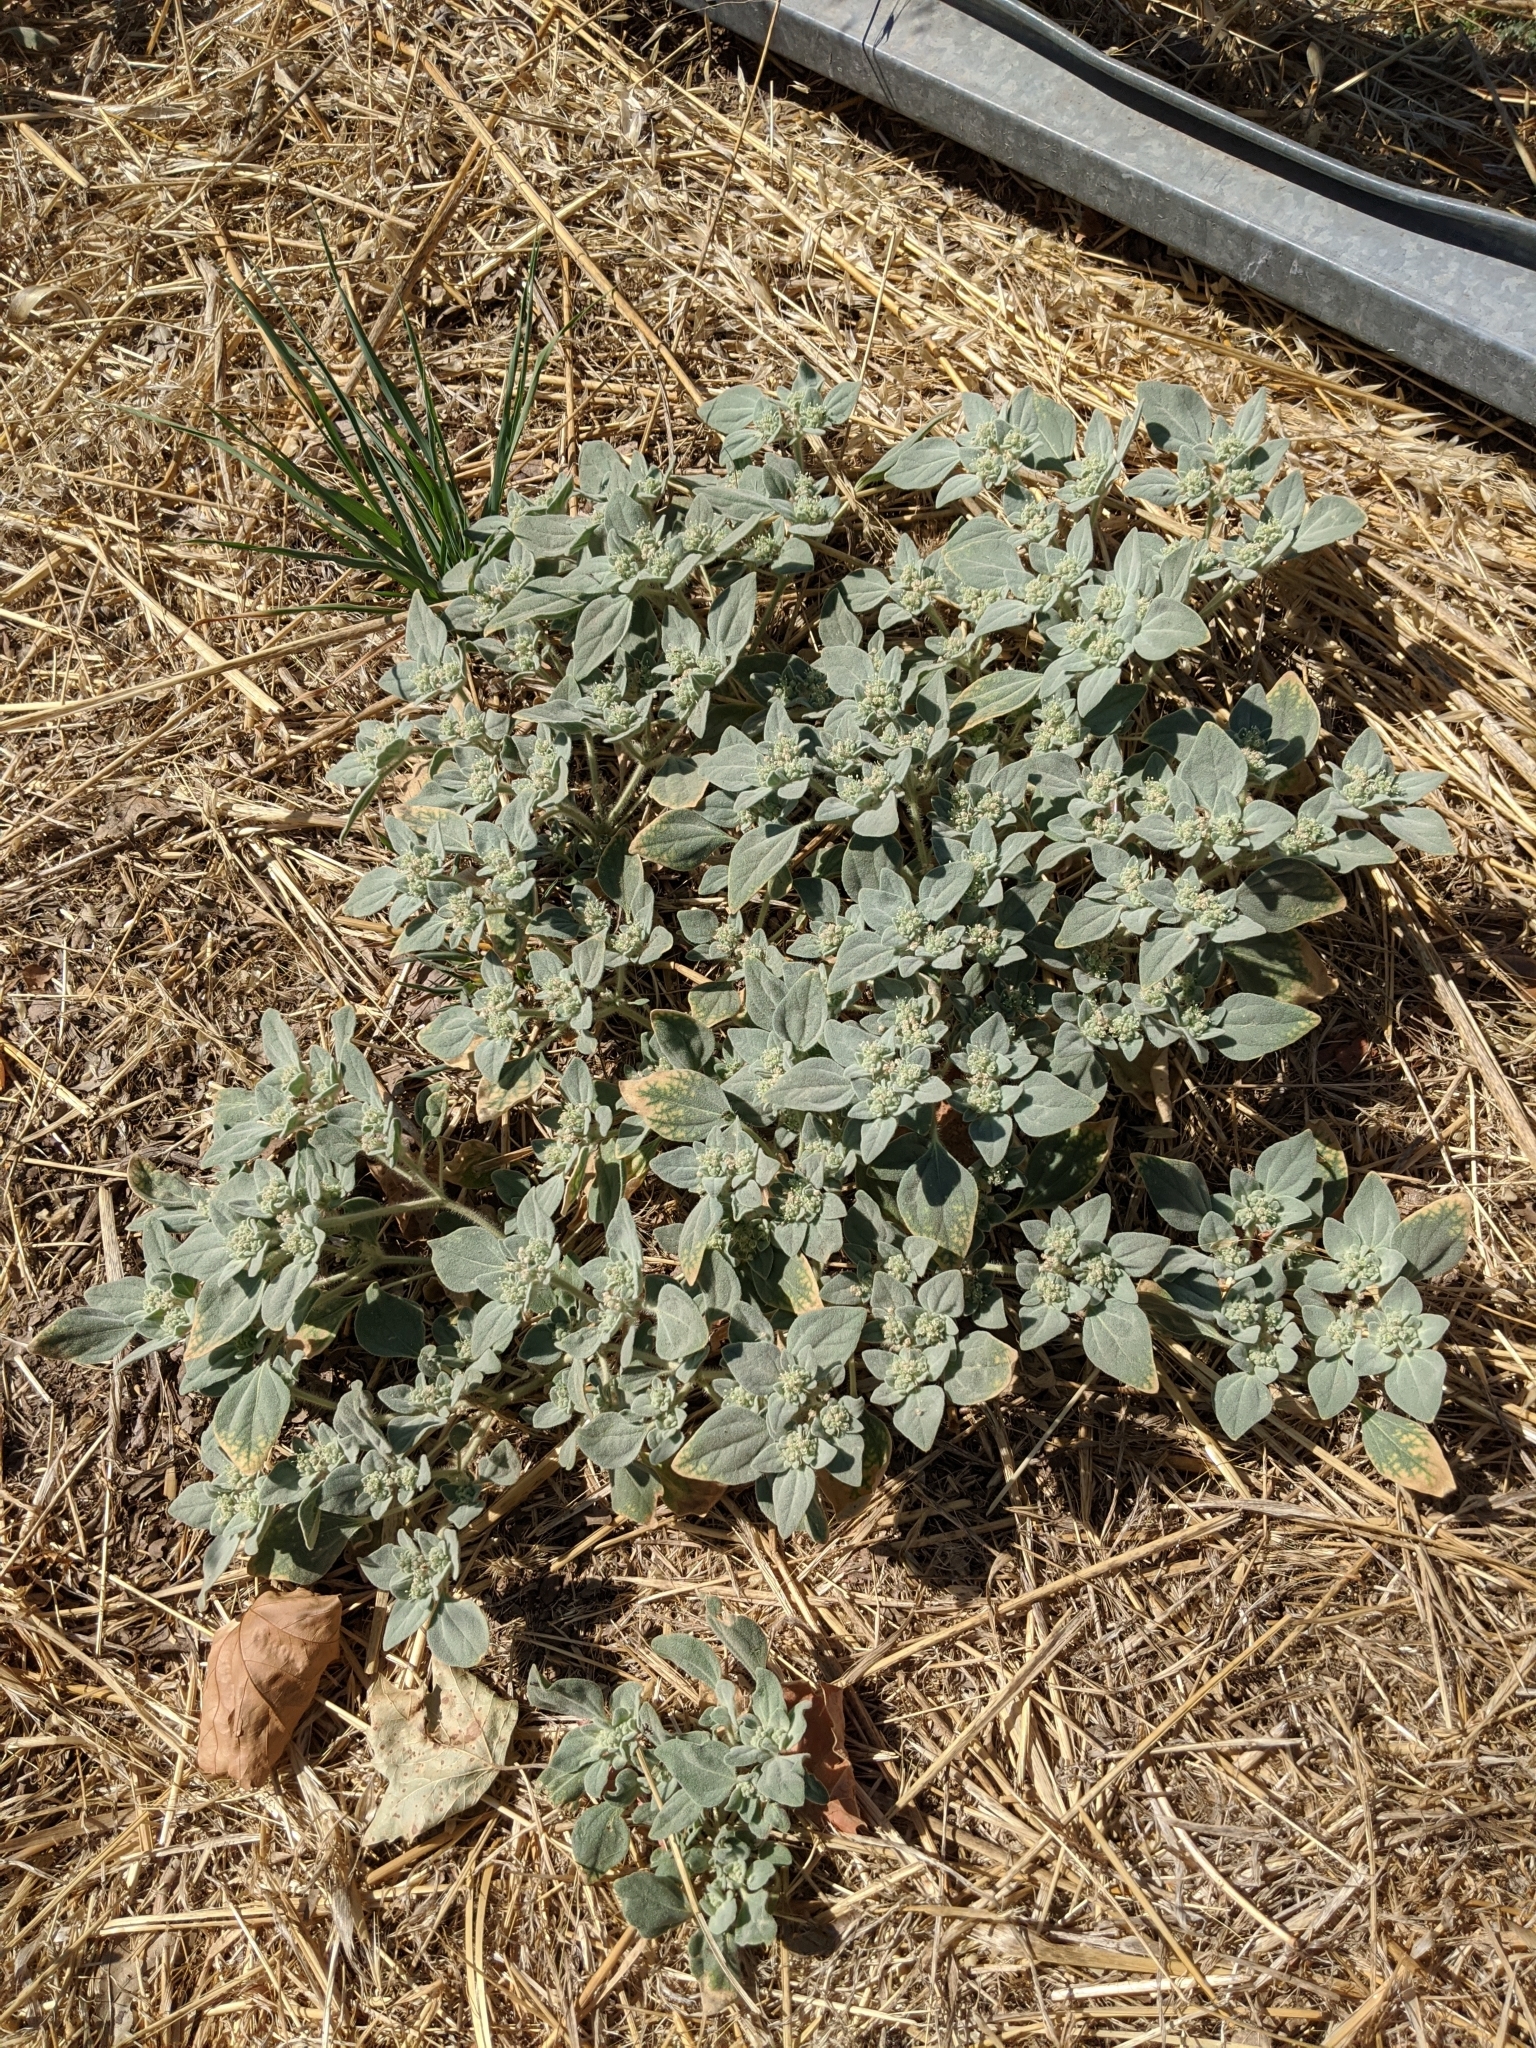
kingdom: Plantae
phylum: Tracheophyta
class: Magnoliopsida
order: Malpighiales
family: Euphorbiaceae
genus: Croton
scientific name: Croton setiger
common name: Dove weed
